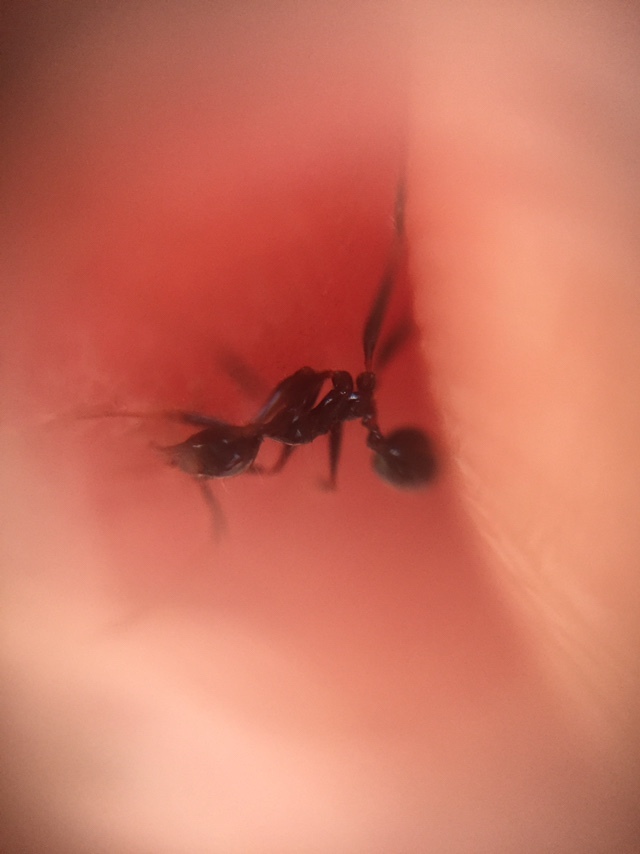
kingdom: Animalia
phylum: Arthropoda
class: Insecta
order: Hymenoptera
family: Formicidae
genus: Pheidole
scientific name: Pheidole latinoda
